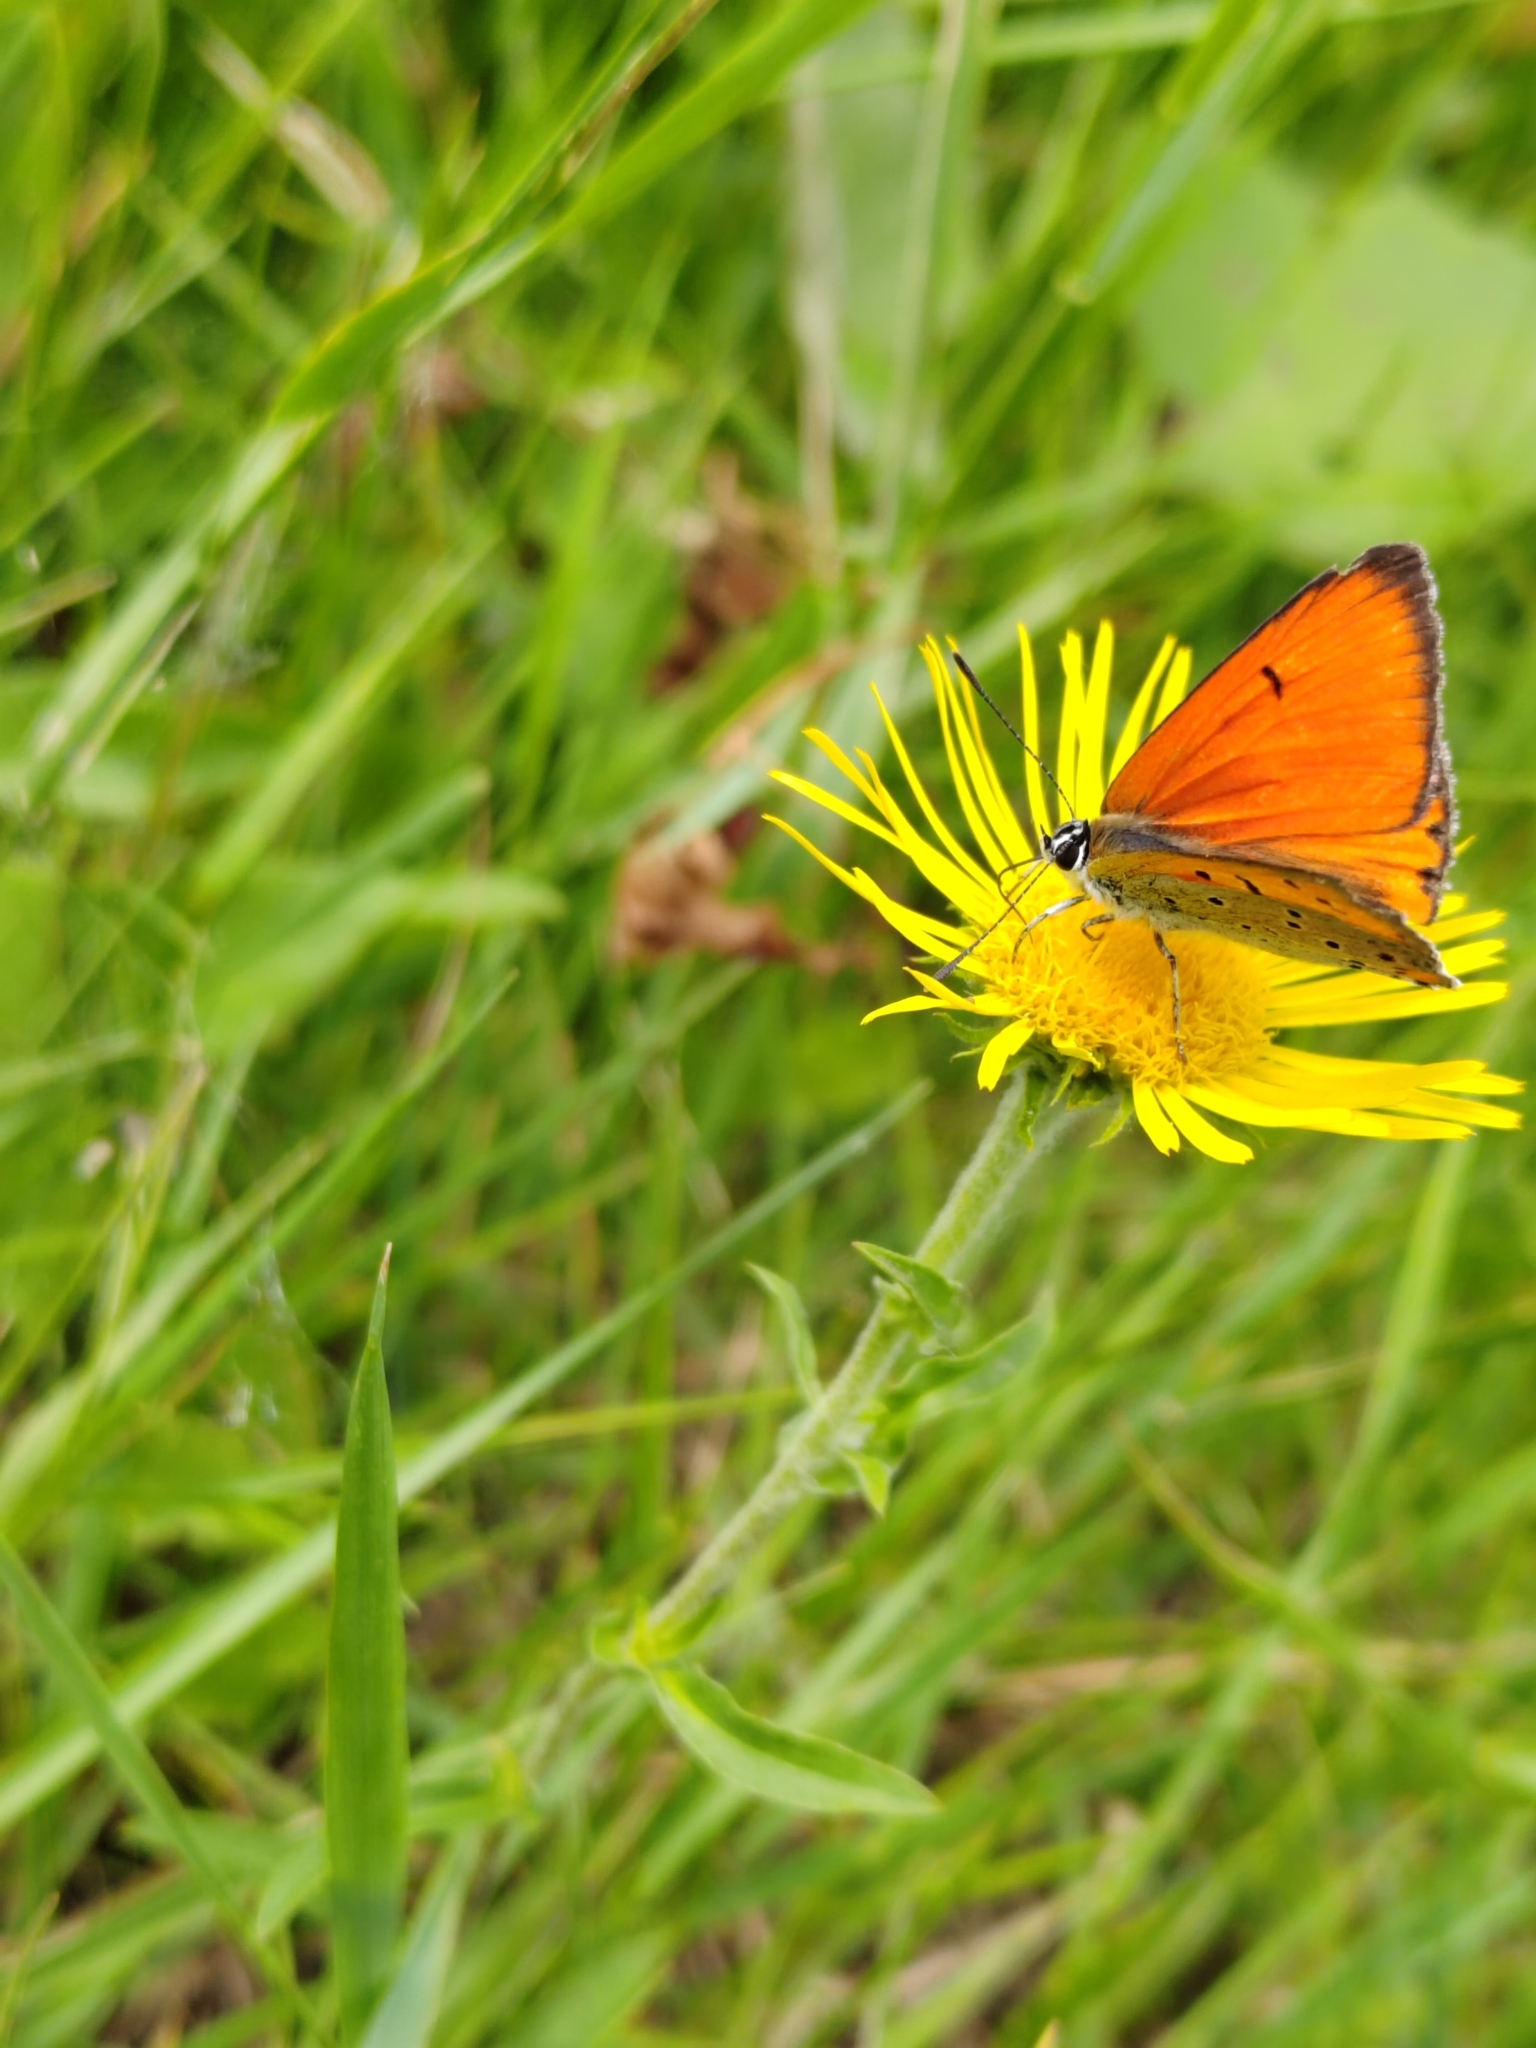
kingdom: Animalia
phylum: Arthropoda
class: Insecta
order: Lepidoptera
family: Lycaenidae
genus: Lycaena
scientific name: Lycaena dispar
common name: Large copper
